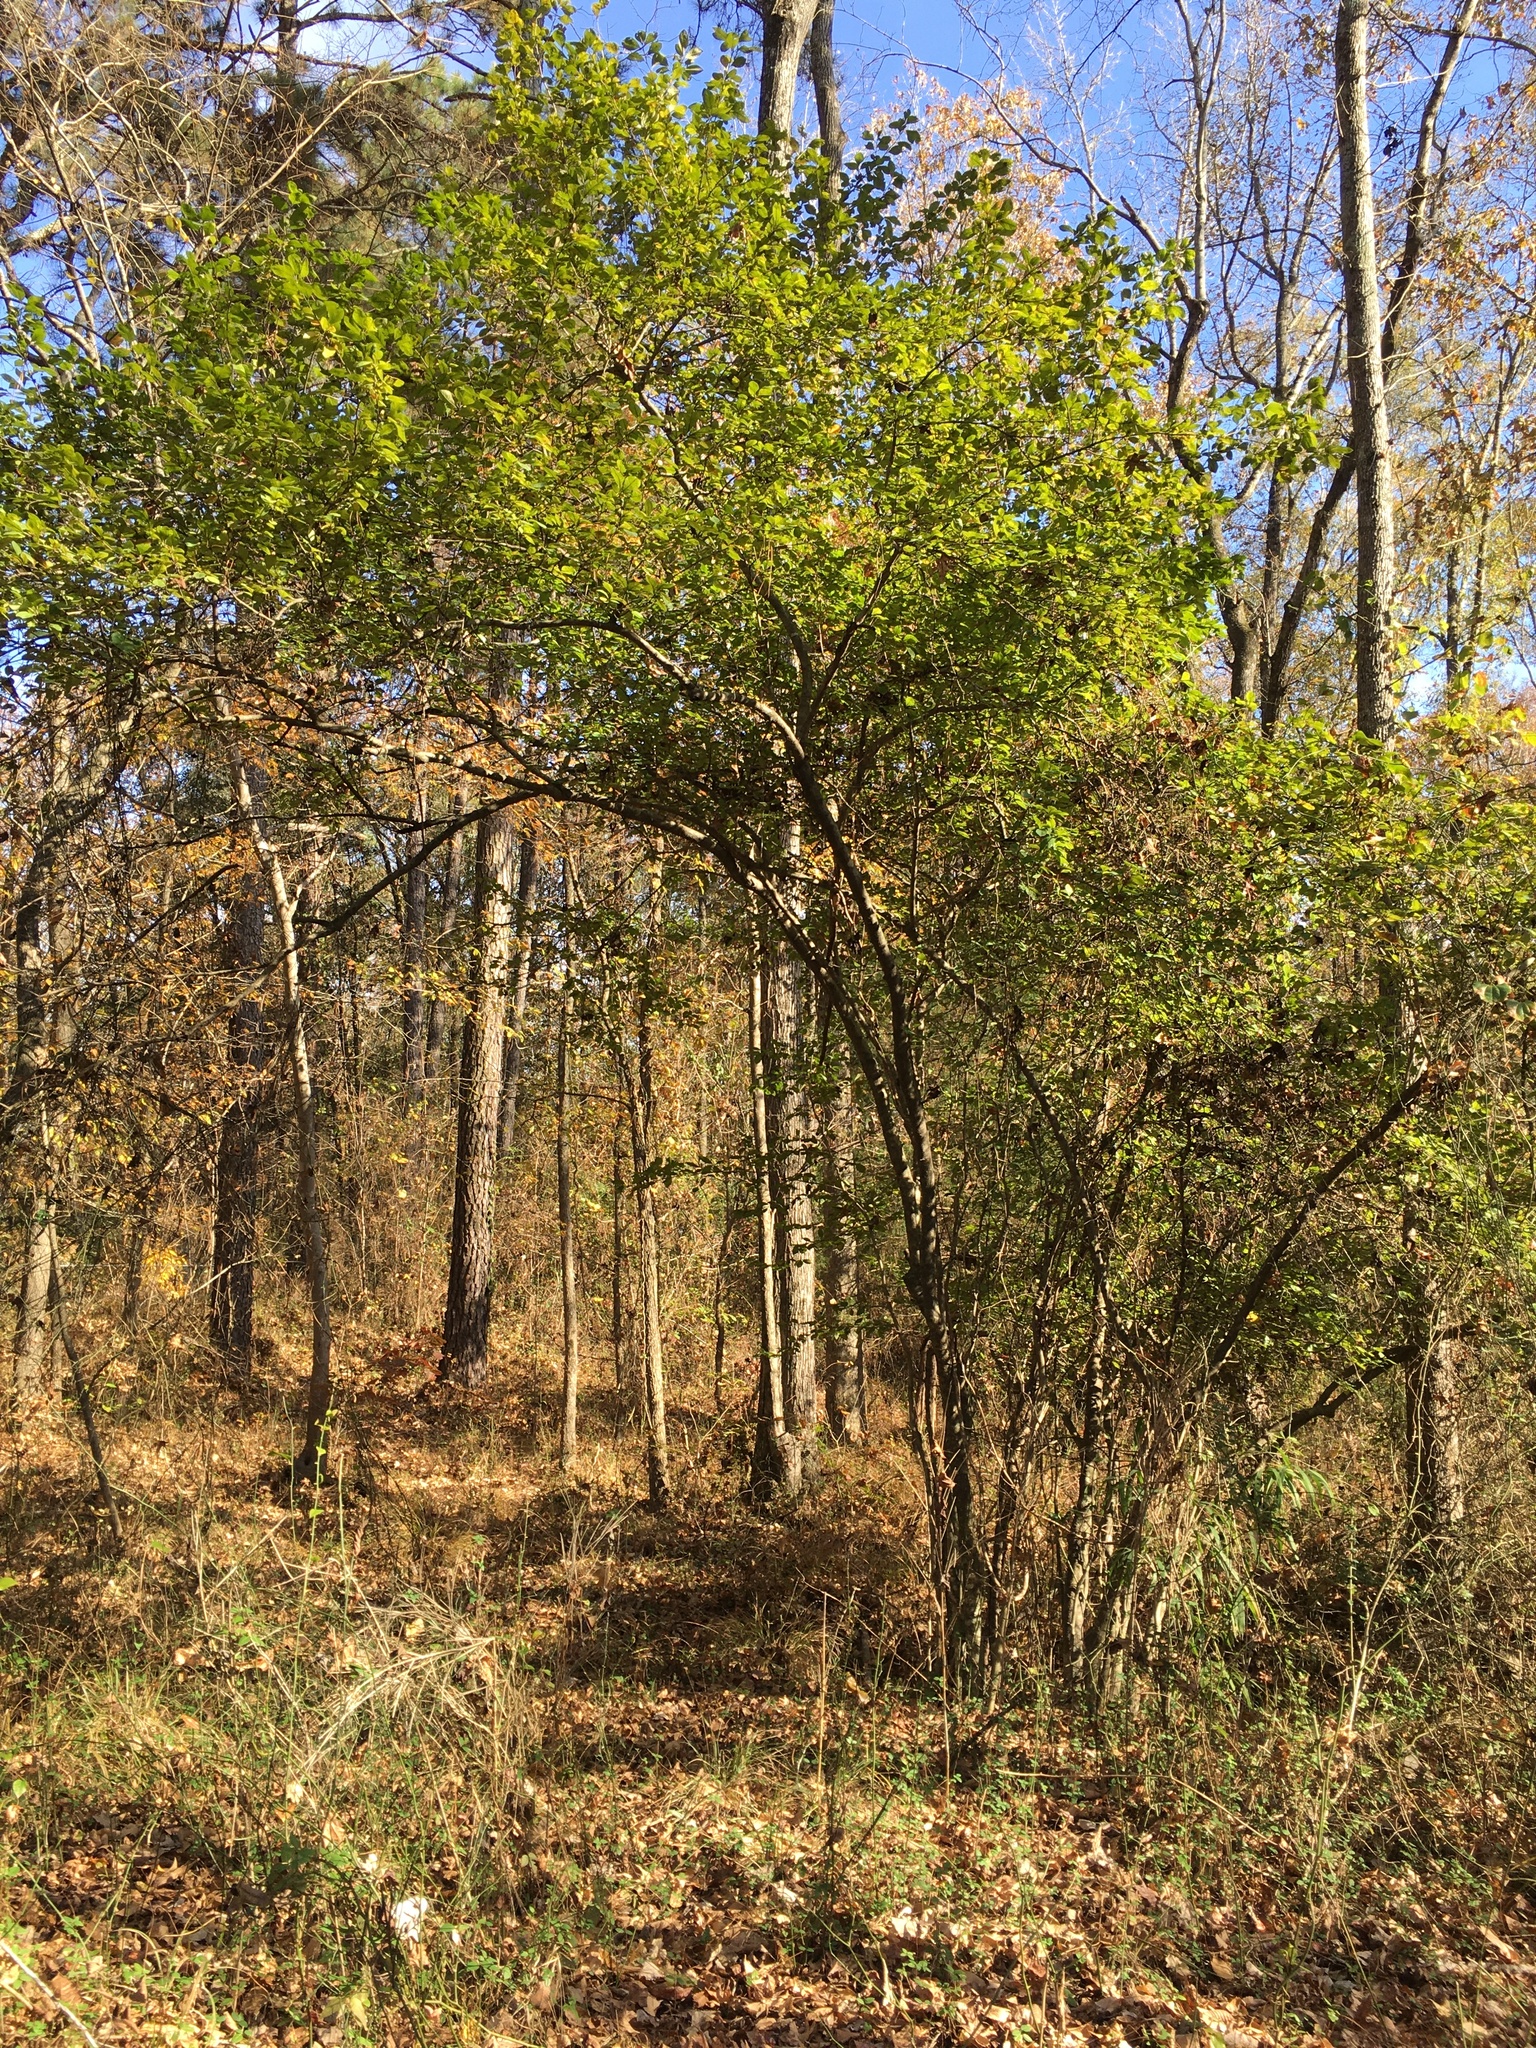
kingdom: Plantae
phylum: Tracheophyta
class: Magnoliopsida
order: Aquifoliales
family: Aquifoliaceae
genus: Ilex
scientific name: Ilex decidua
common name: Possum-haw
